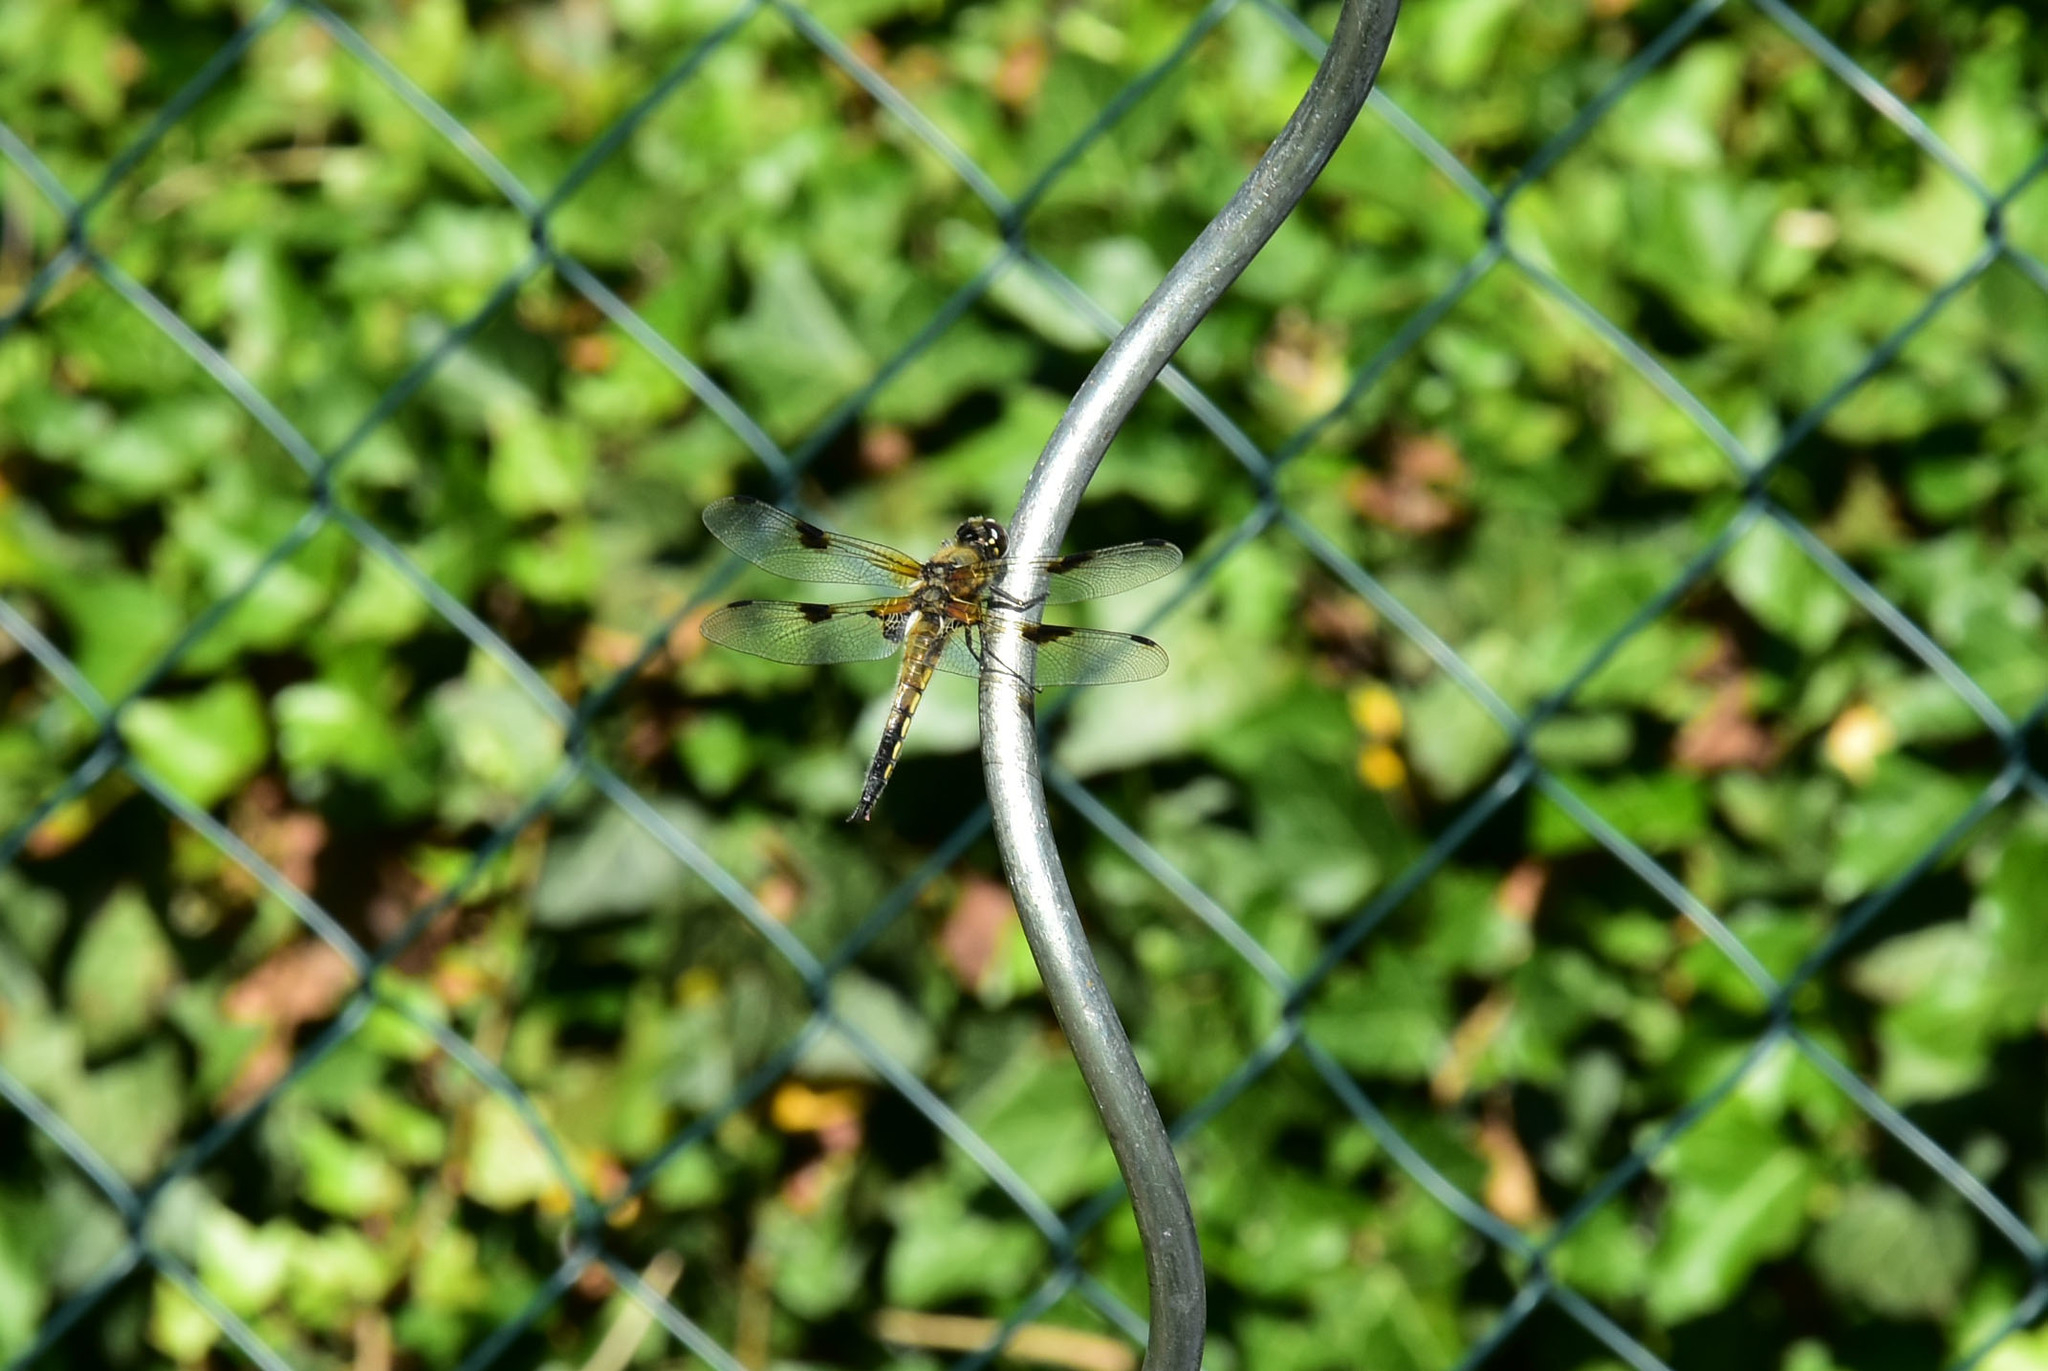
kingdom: Animalia
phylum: Arthropoda
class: Insecta
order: Odonata
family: Libellulidae
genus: Libellula
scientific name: Libellula quadrimaculata
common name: Four-spotted chaser
